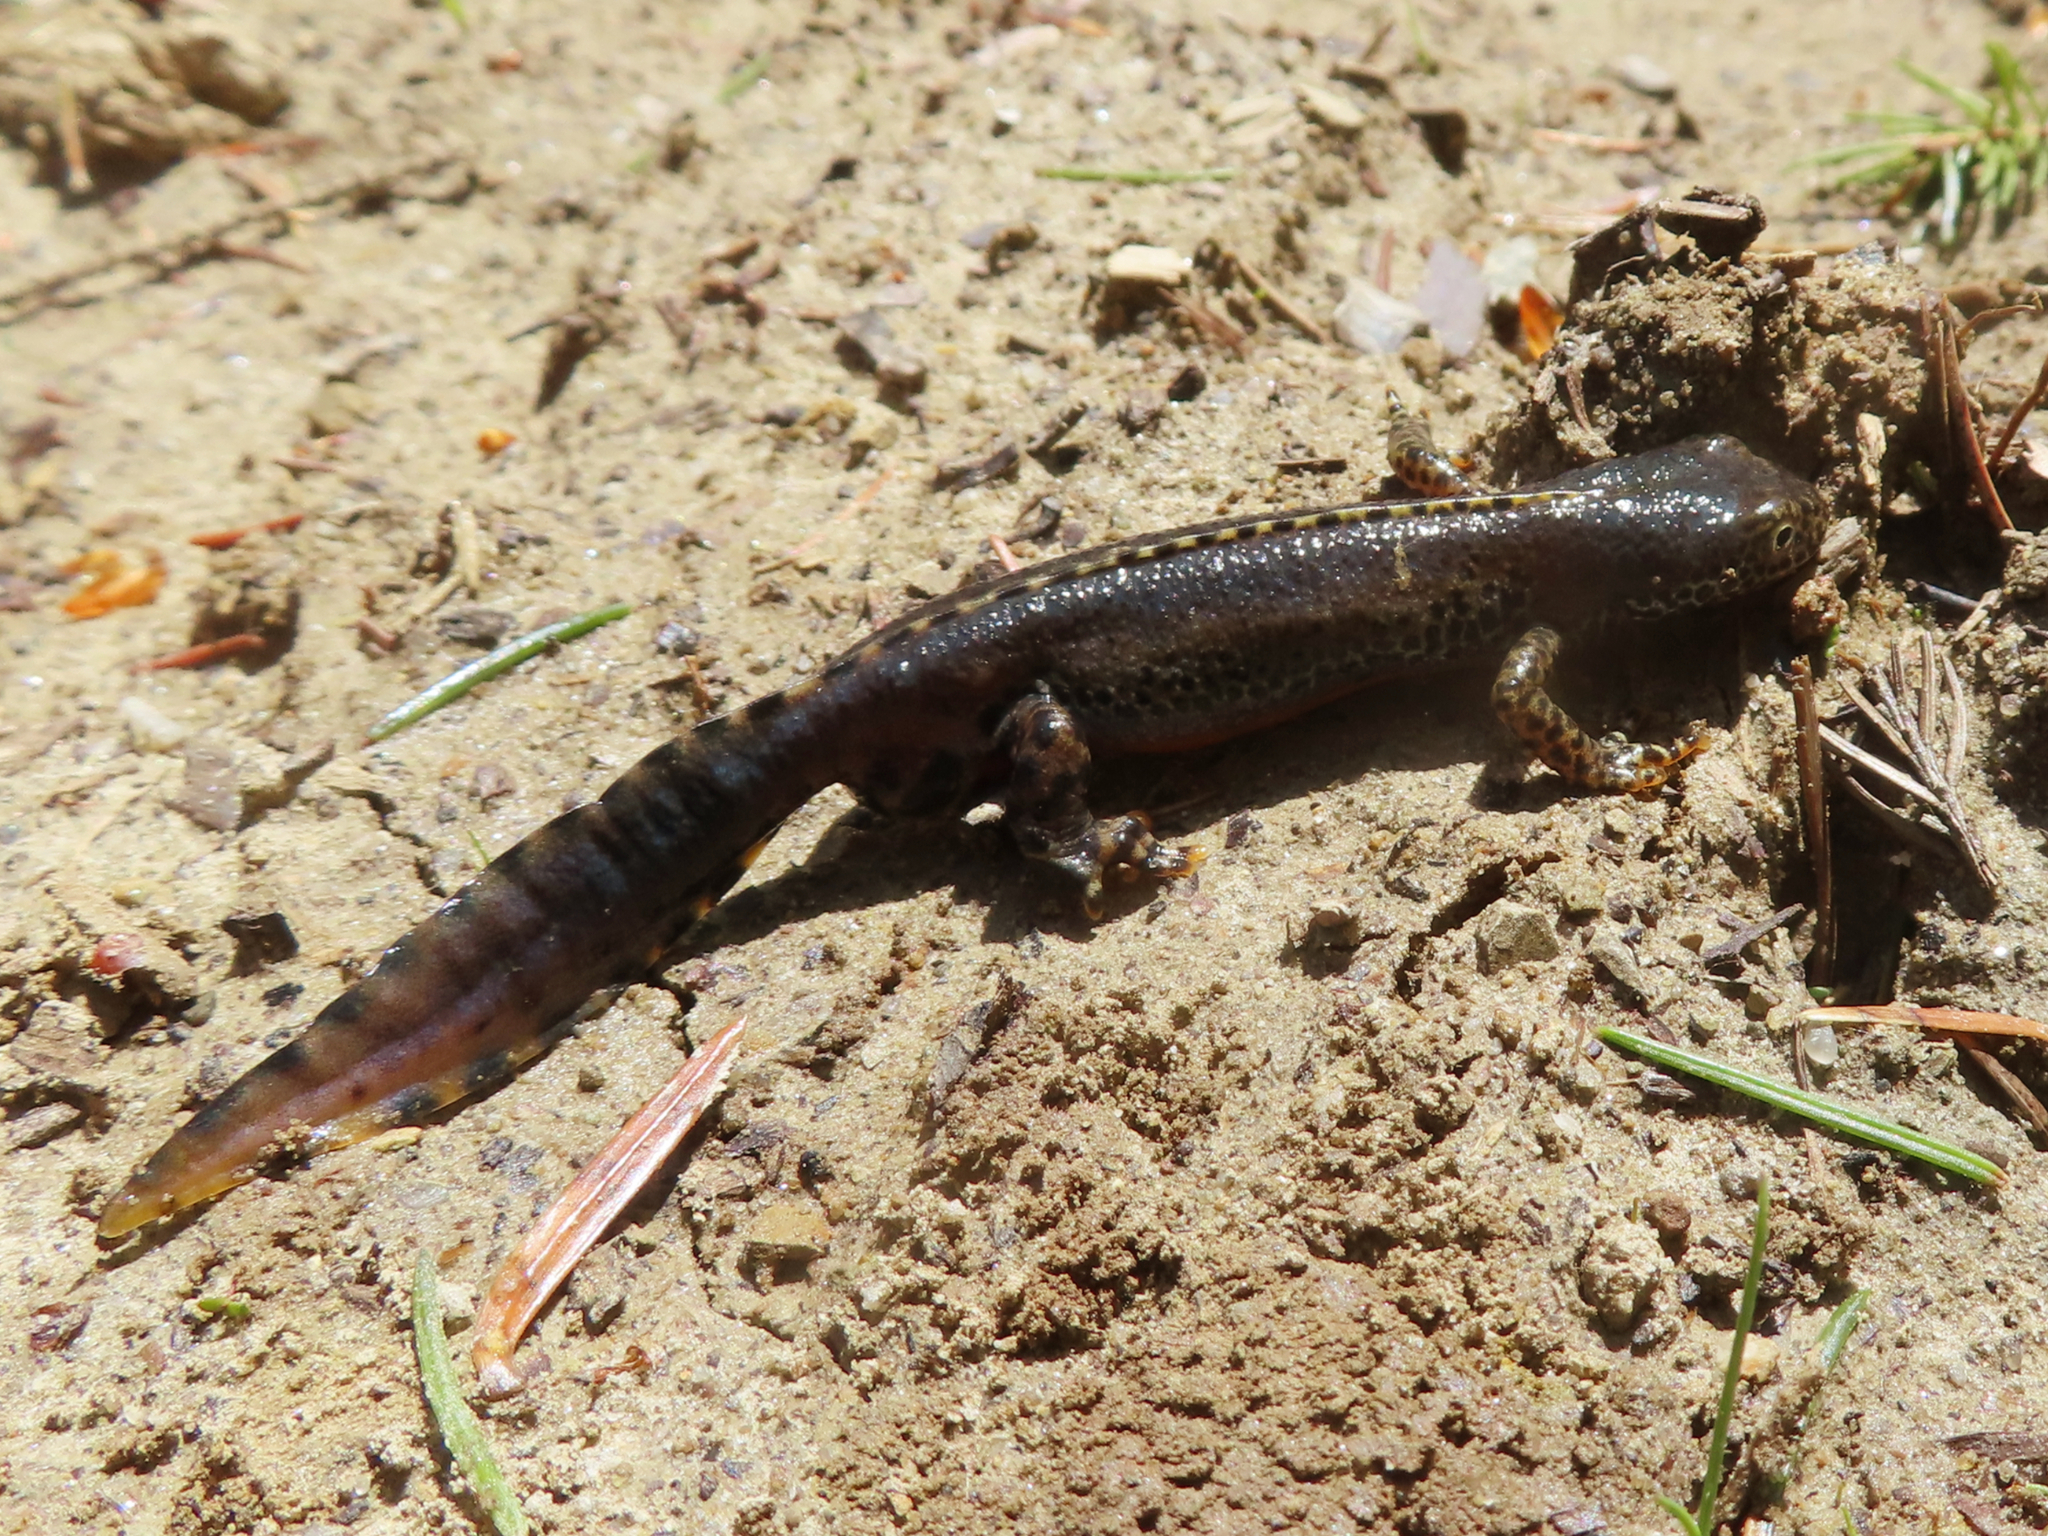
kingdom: Animalia
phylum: Chordata
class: Amphibia
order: Caudata
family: Salamandridae
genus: Ichthyosaura
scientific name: Ichthyosaura alpestris
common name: Alpine newt
